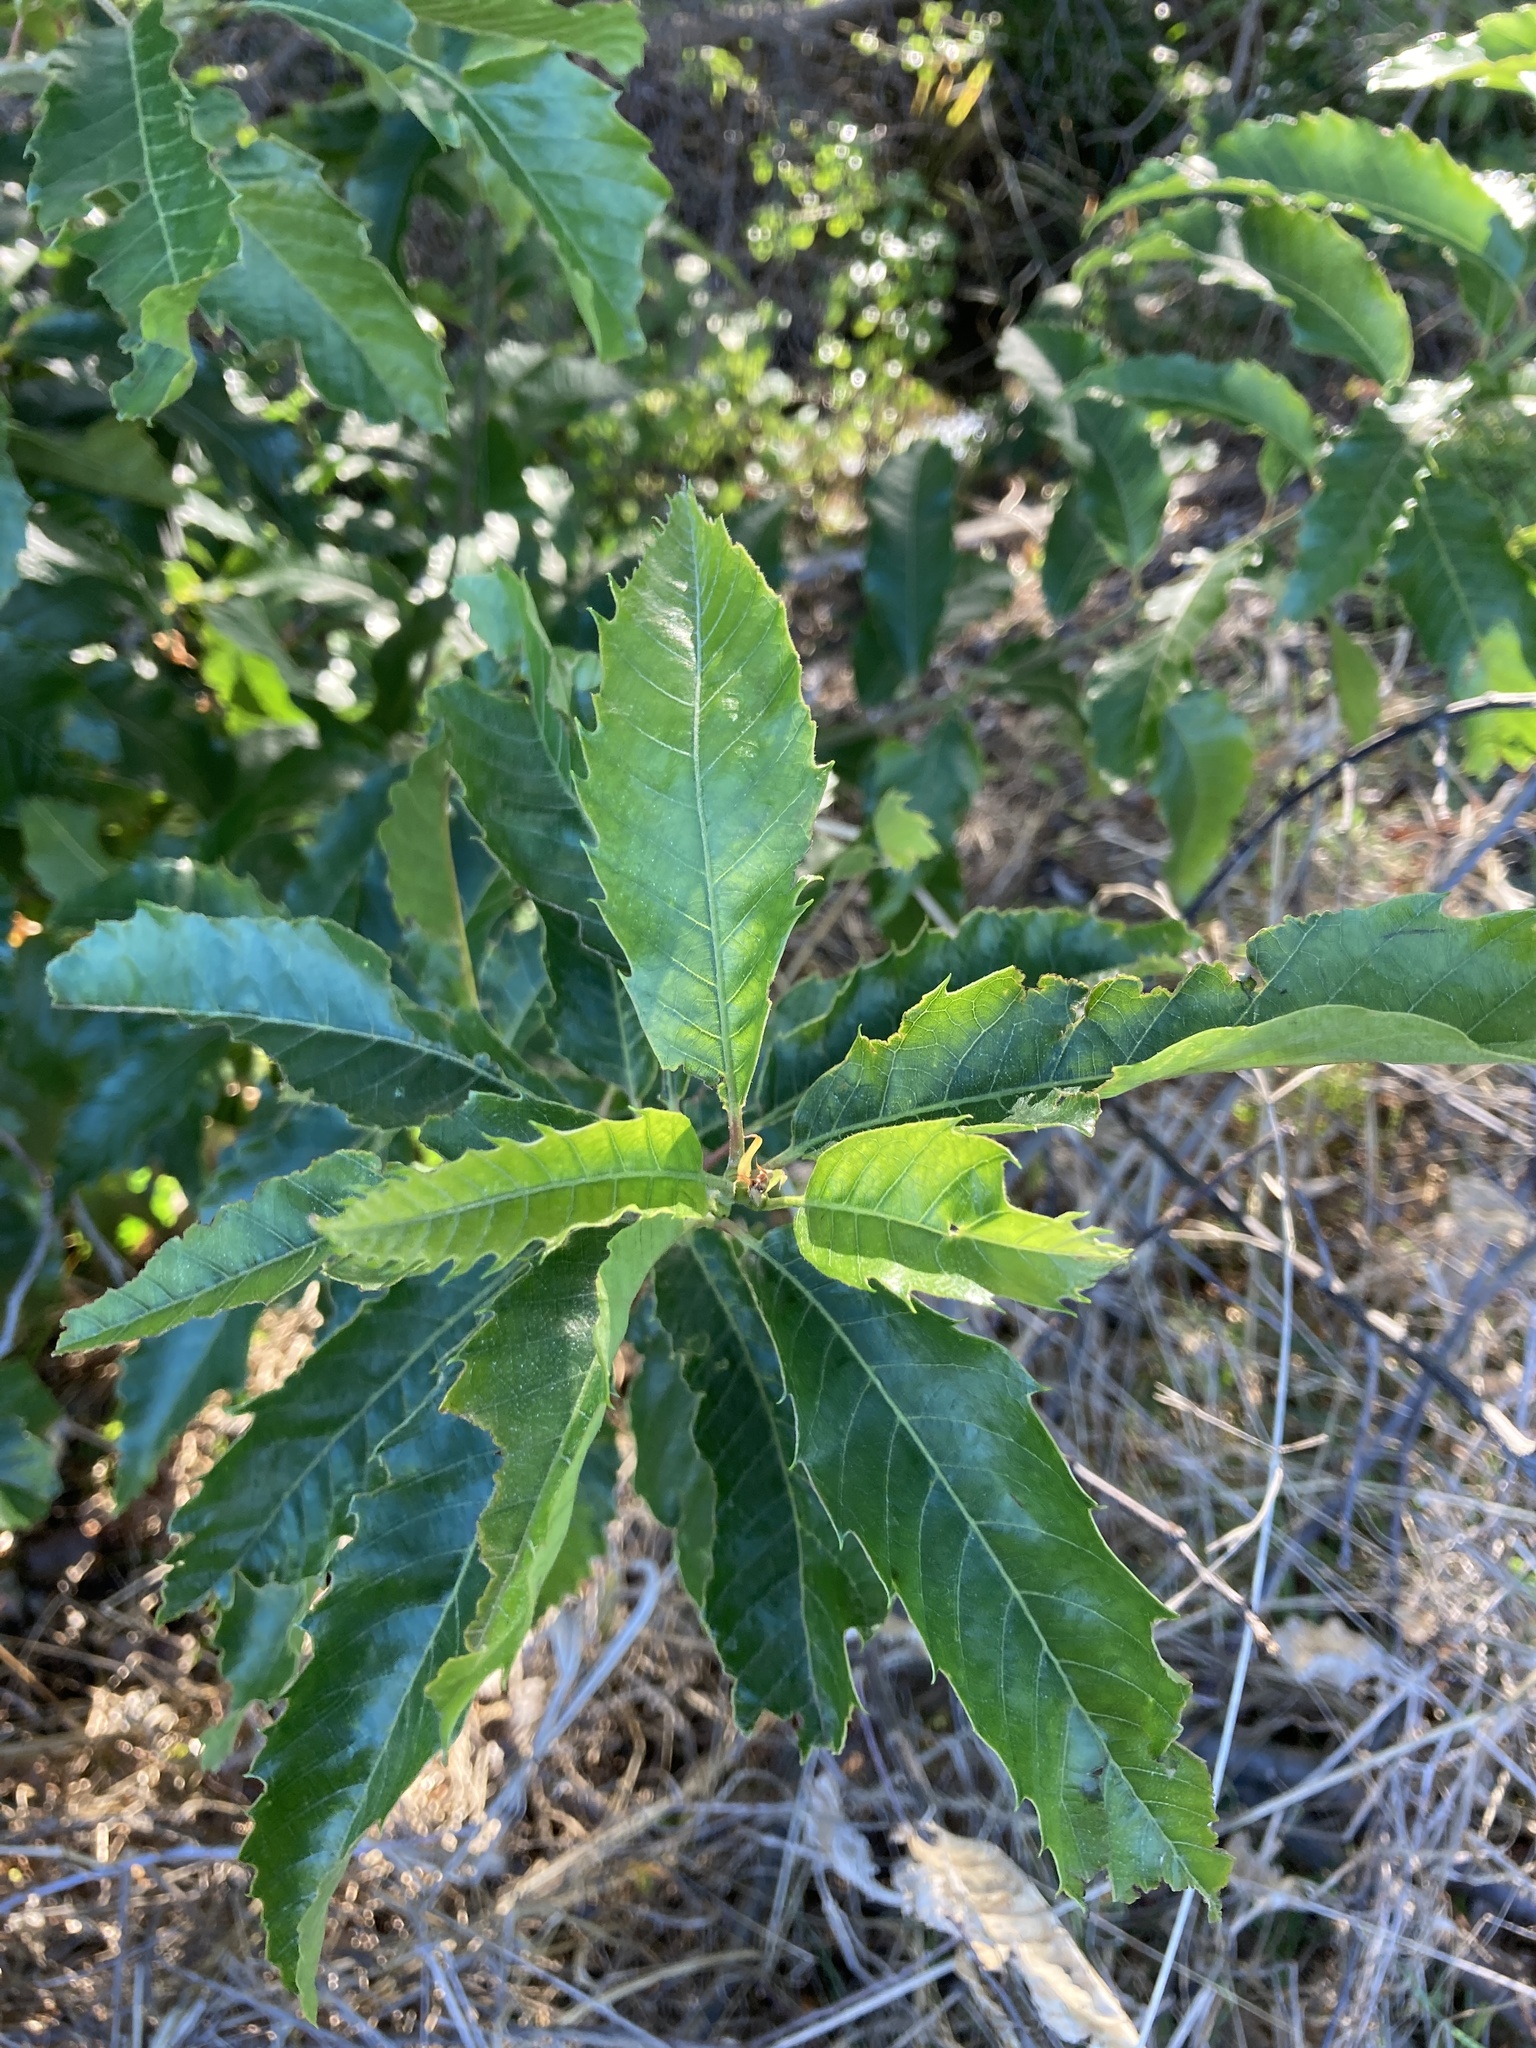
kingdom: Plantae
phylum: Tracheophyta
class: Magnoliopsida
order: Fagales
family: Fagaceae
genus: Castanea
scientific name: Castanea sativa
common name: Sweet chestnut
